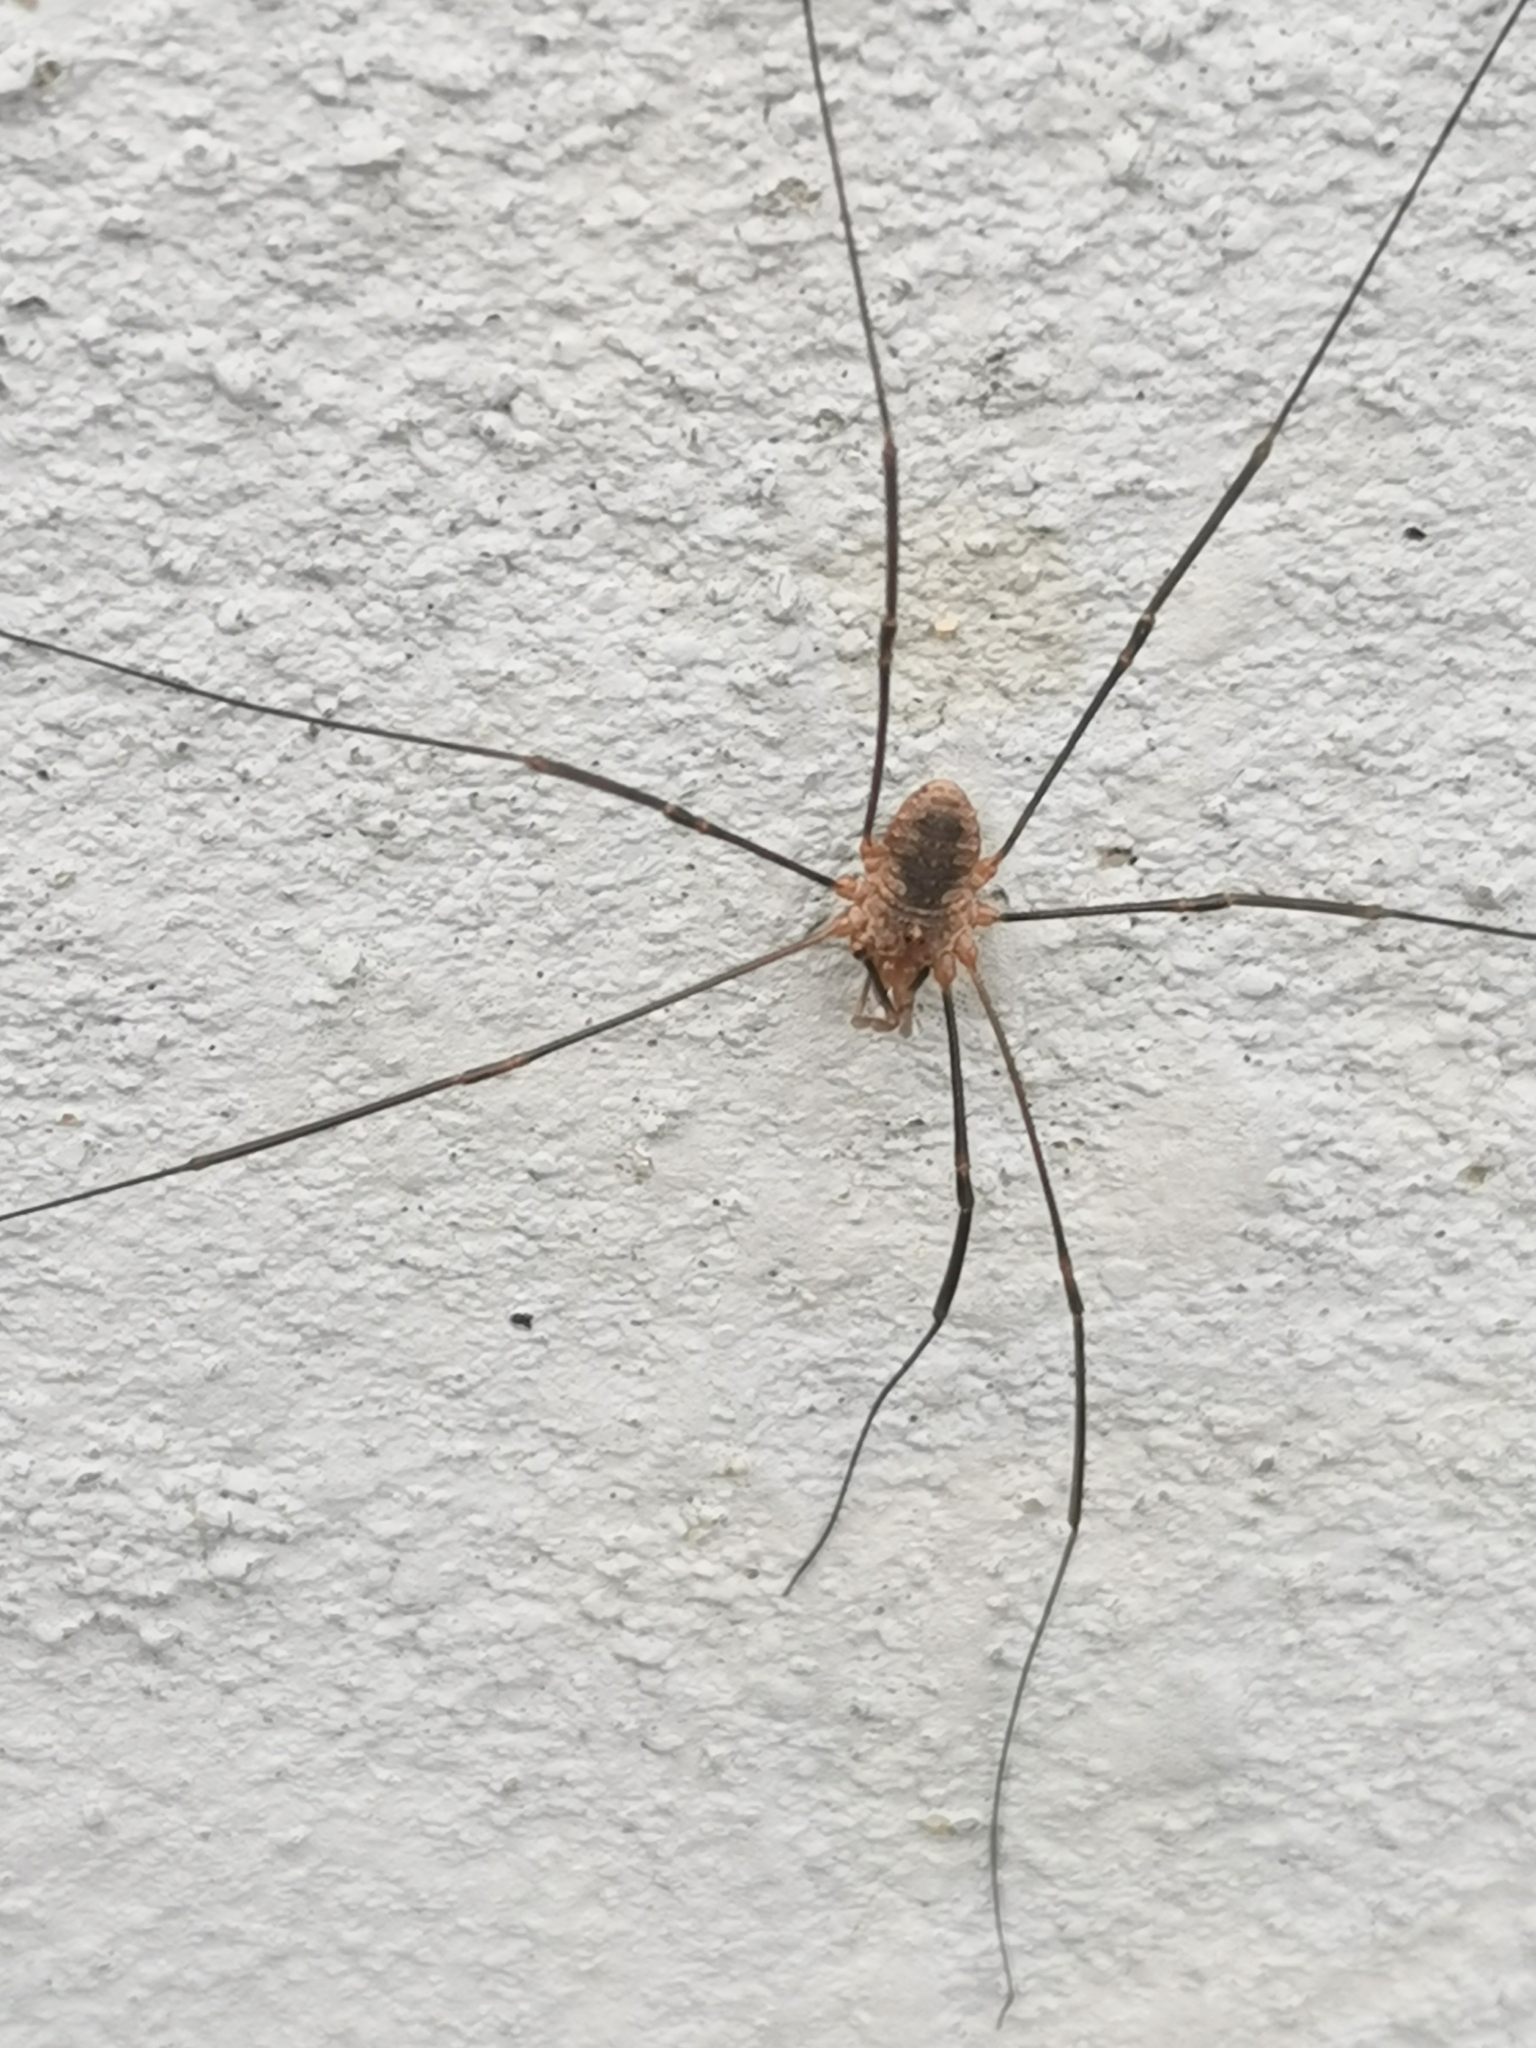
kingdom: Animalia
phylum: Arthropoda
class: Arachnida
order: Opiliones
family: Phalangiidae
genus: Phalangium
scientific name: Phalangium opilio
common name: Daddy longleg
